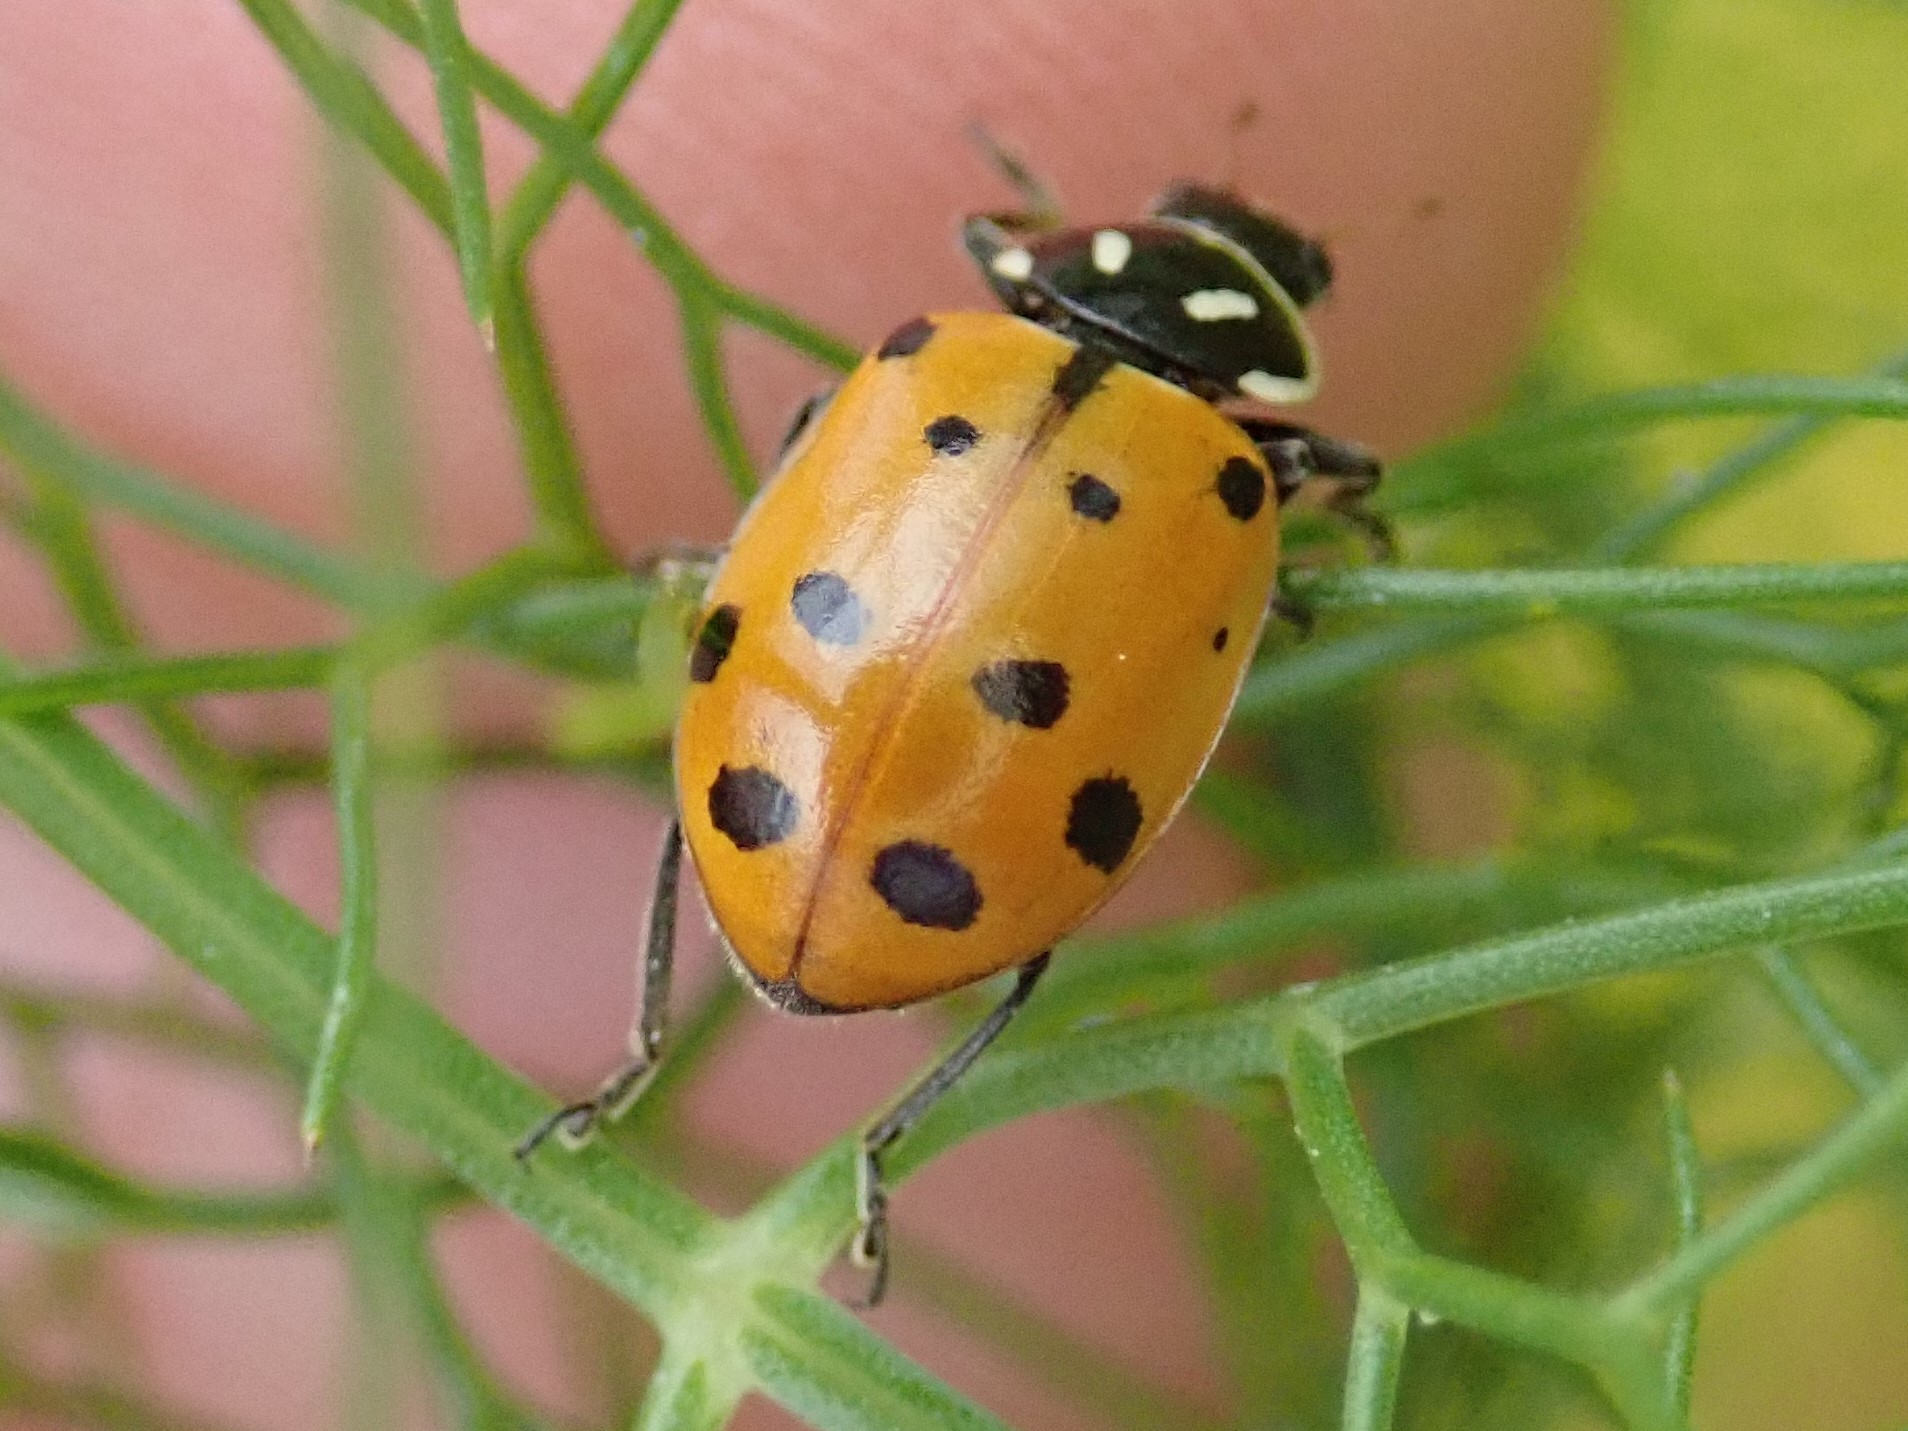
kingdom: Animalia
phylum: Arthropoda
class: Insecta
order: Coleoptera
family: Coccinellidae
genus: Hippodamia
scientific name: Hippodamia convergens
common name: Convergent lady beetle
